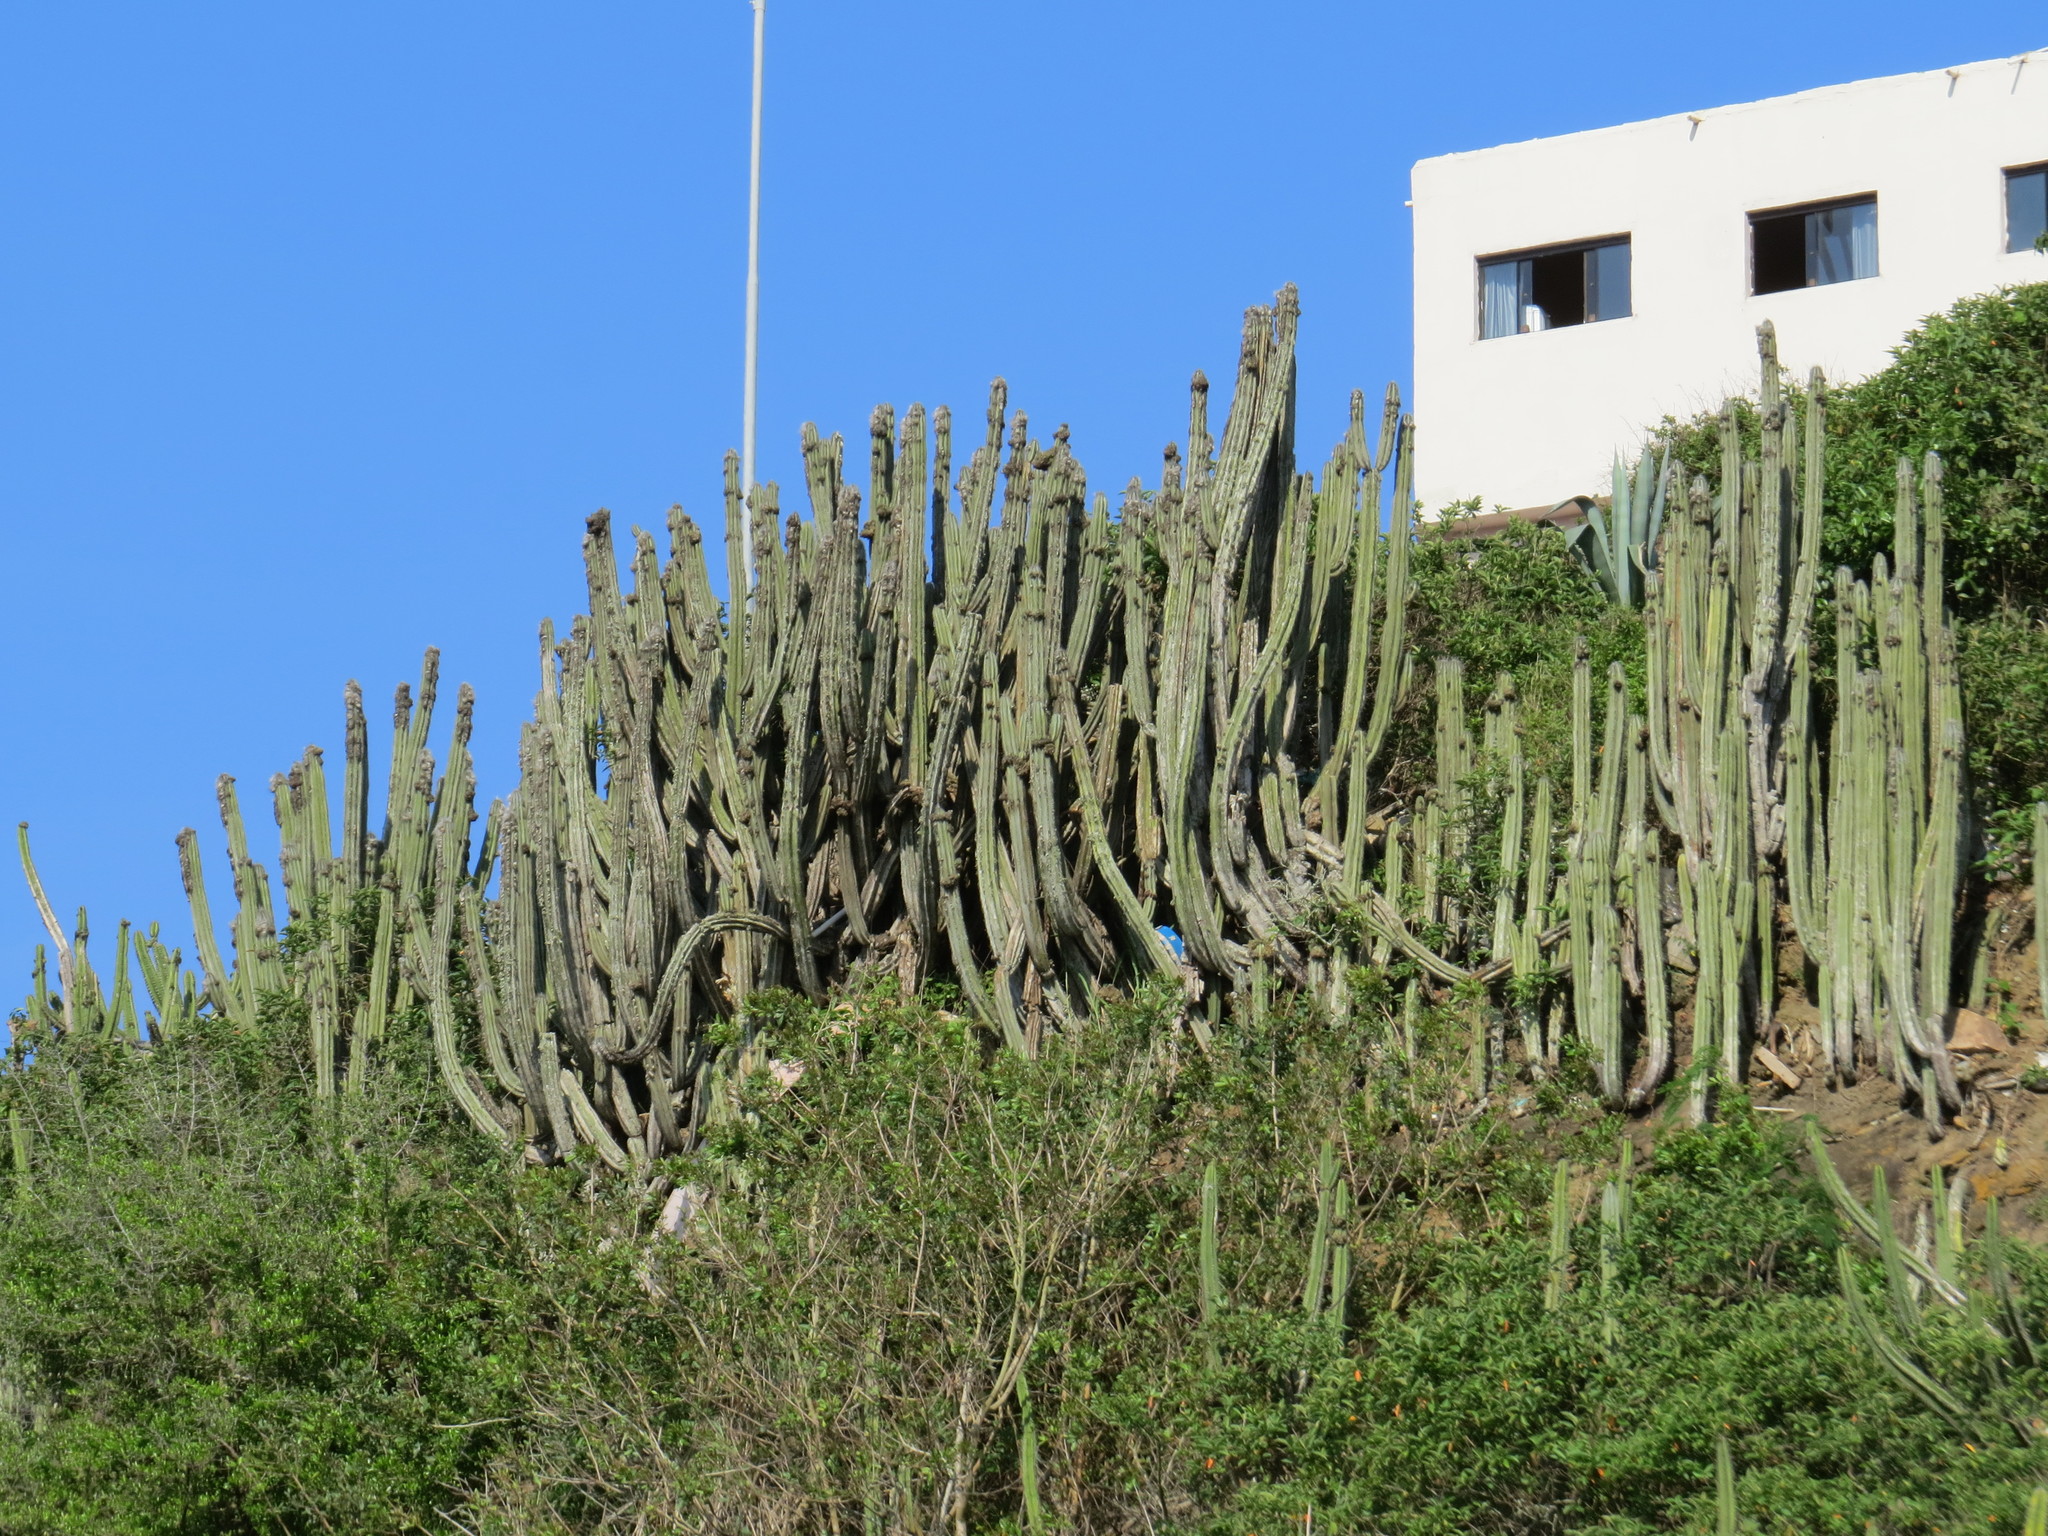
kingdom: Plantae
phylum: Tracheophyta
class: Magnoliopsida
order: Caryophyllales
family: Cactaceae
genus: Pilosocereus
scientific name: Pilosocereus ulei
